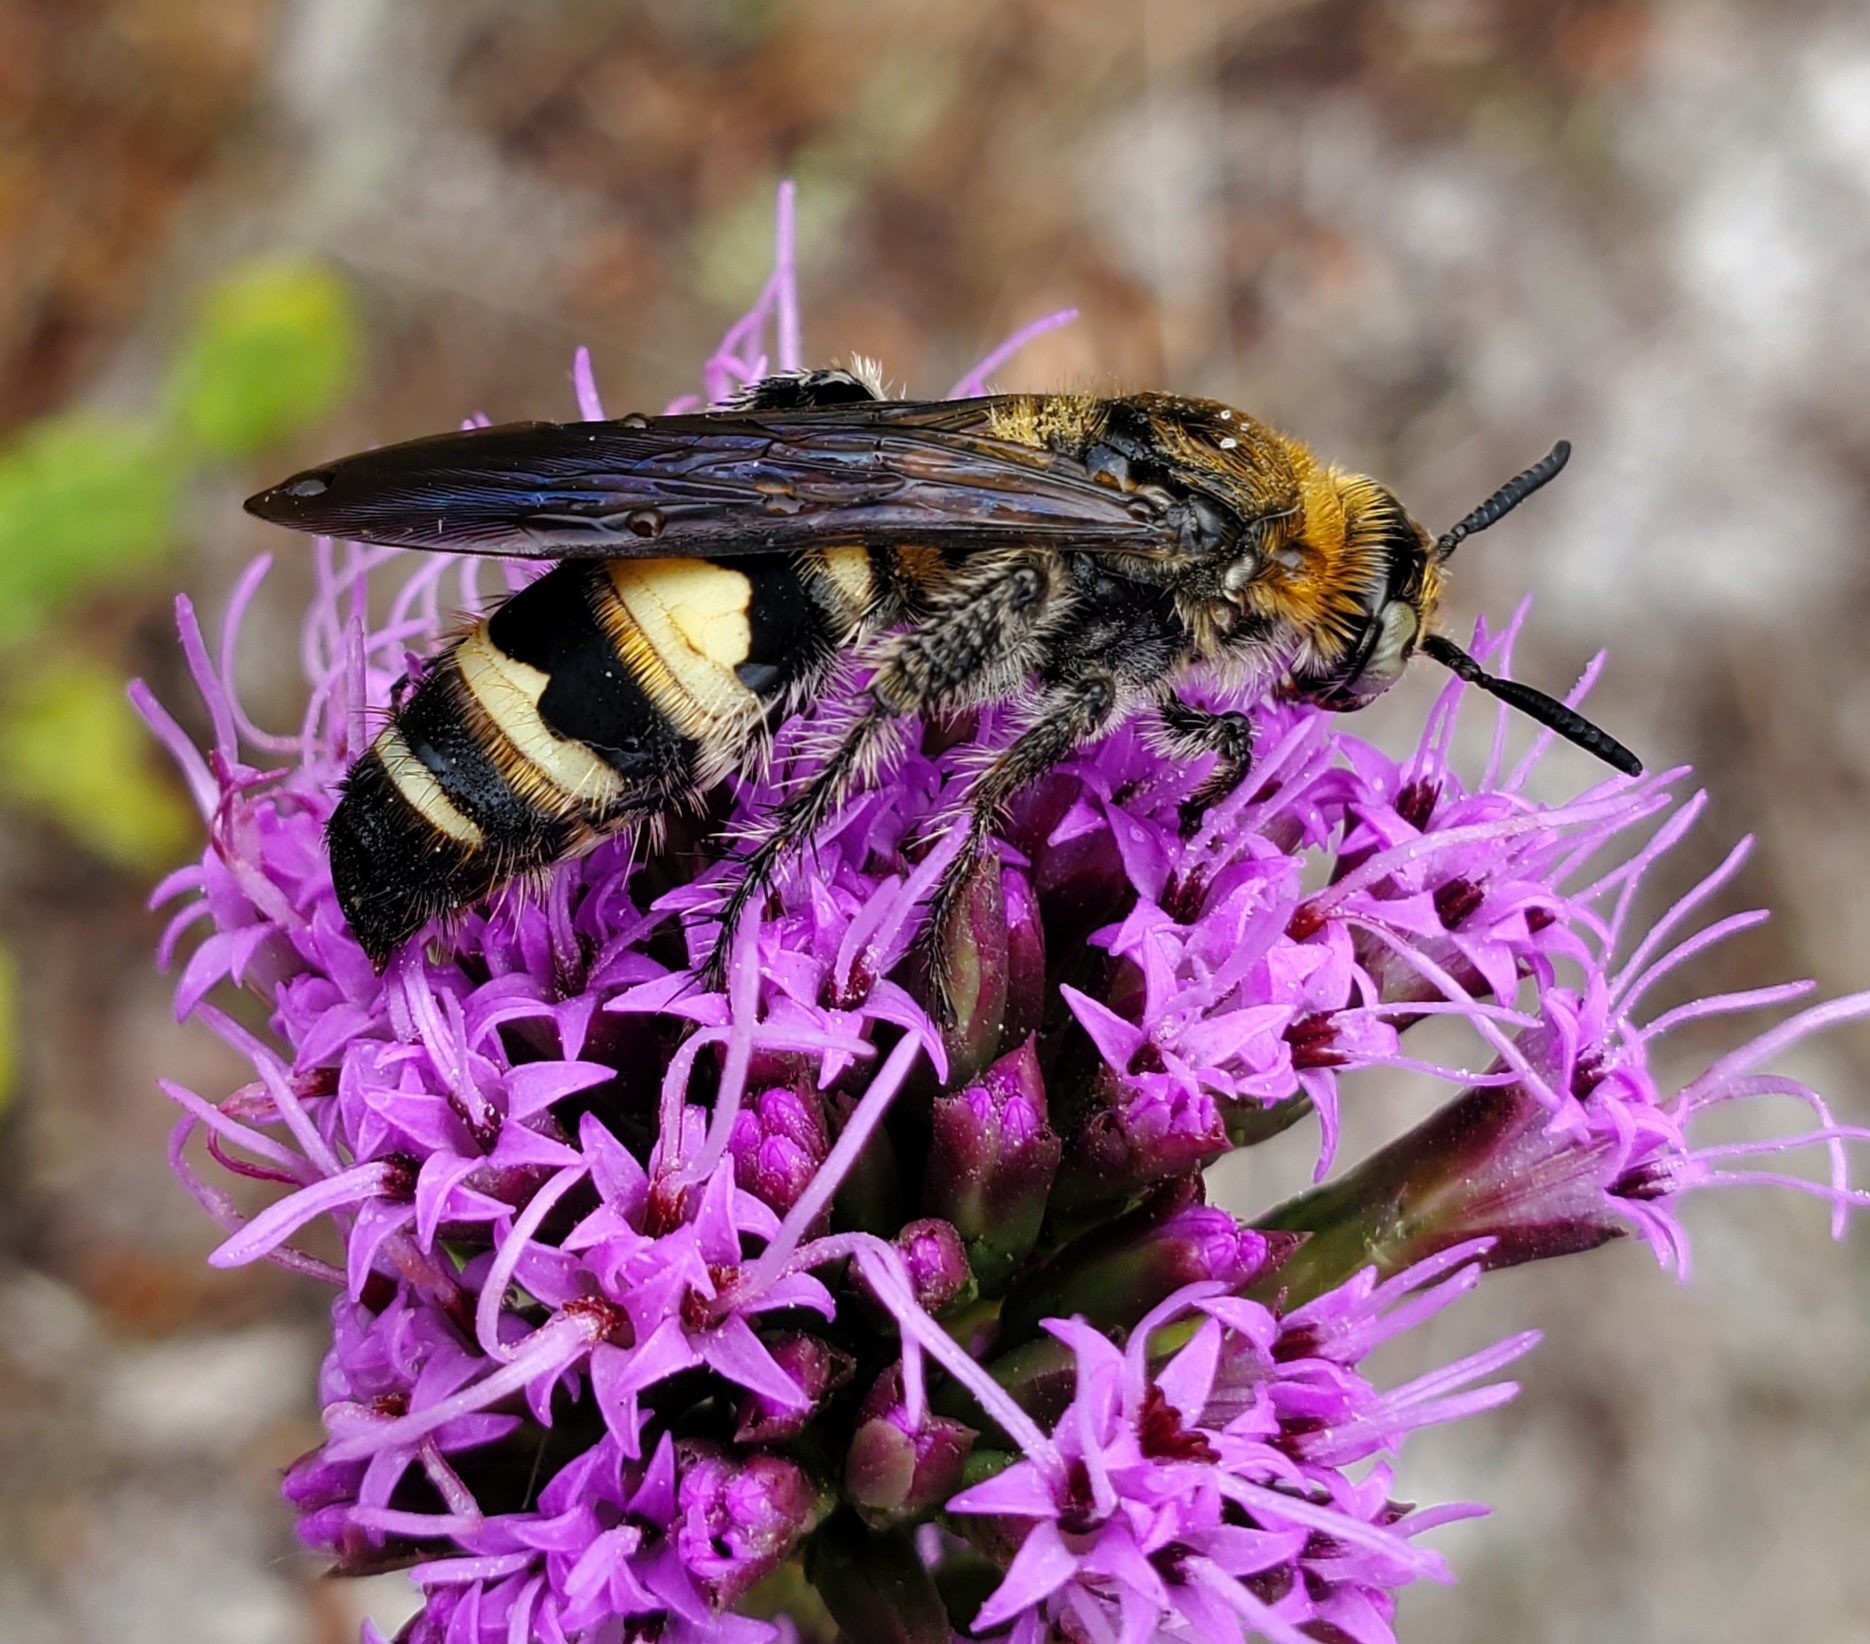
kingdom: Animalia
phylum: Arthropoda
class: Insecta
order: Hymenoptera
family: Scoliidae
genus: Dielis
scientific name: Dielis
